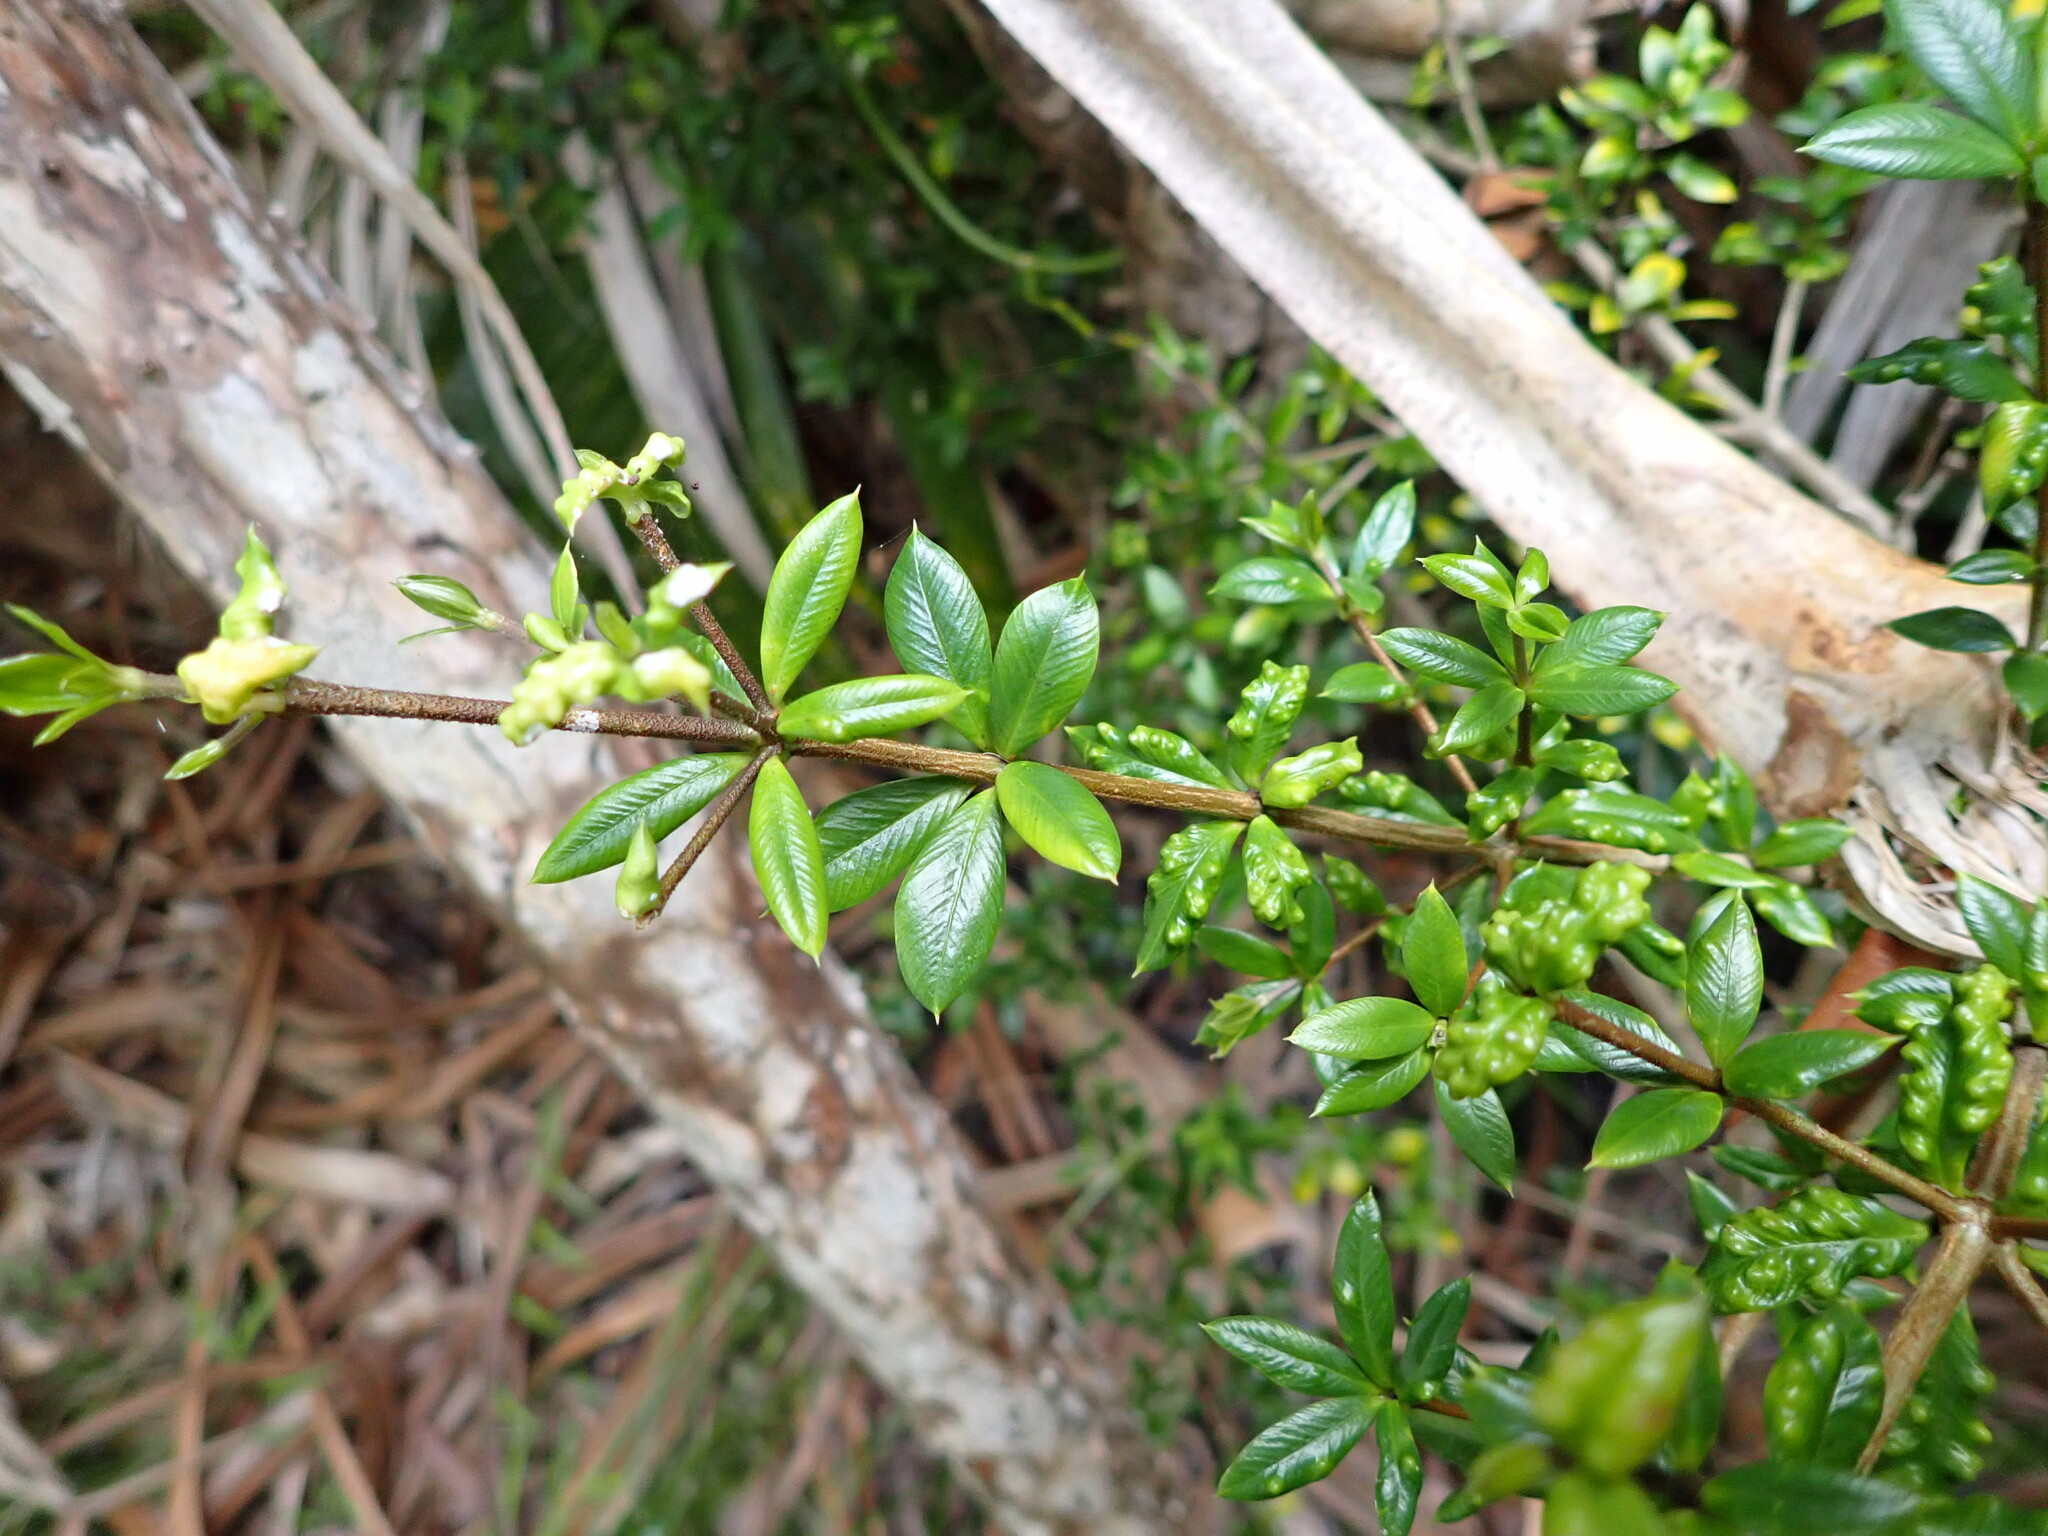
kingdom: Plantae
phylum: Tracheophyta
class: Magnoliopsida
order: Gentianales
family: Apocynaceae
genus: Alyxia
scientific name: Alyxia ruscifolia
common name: Chainfruit
